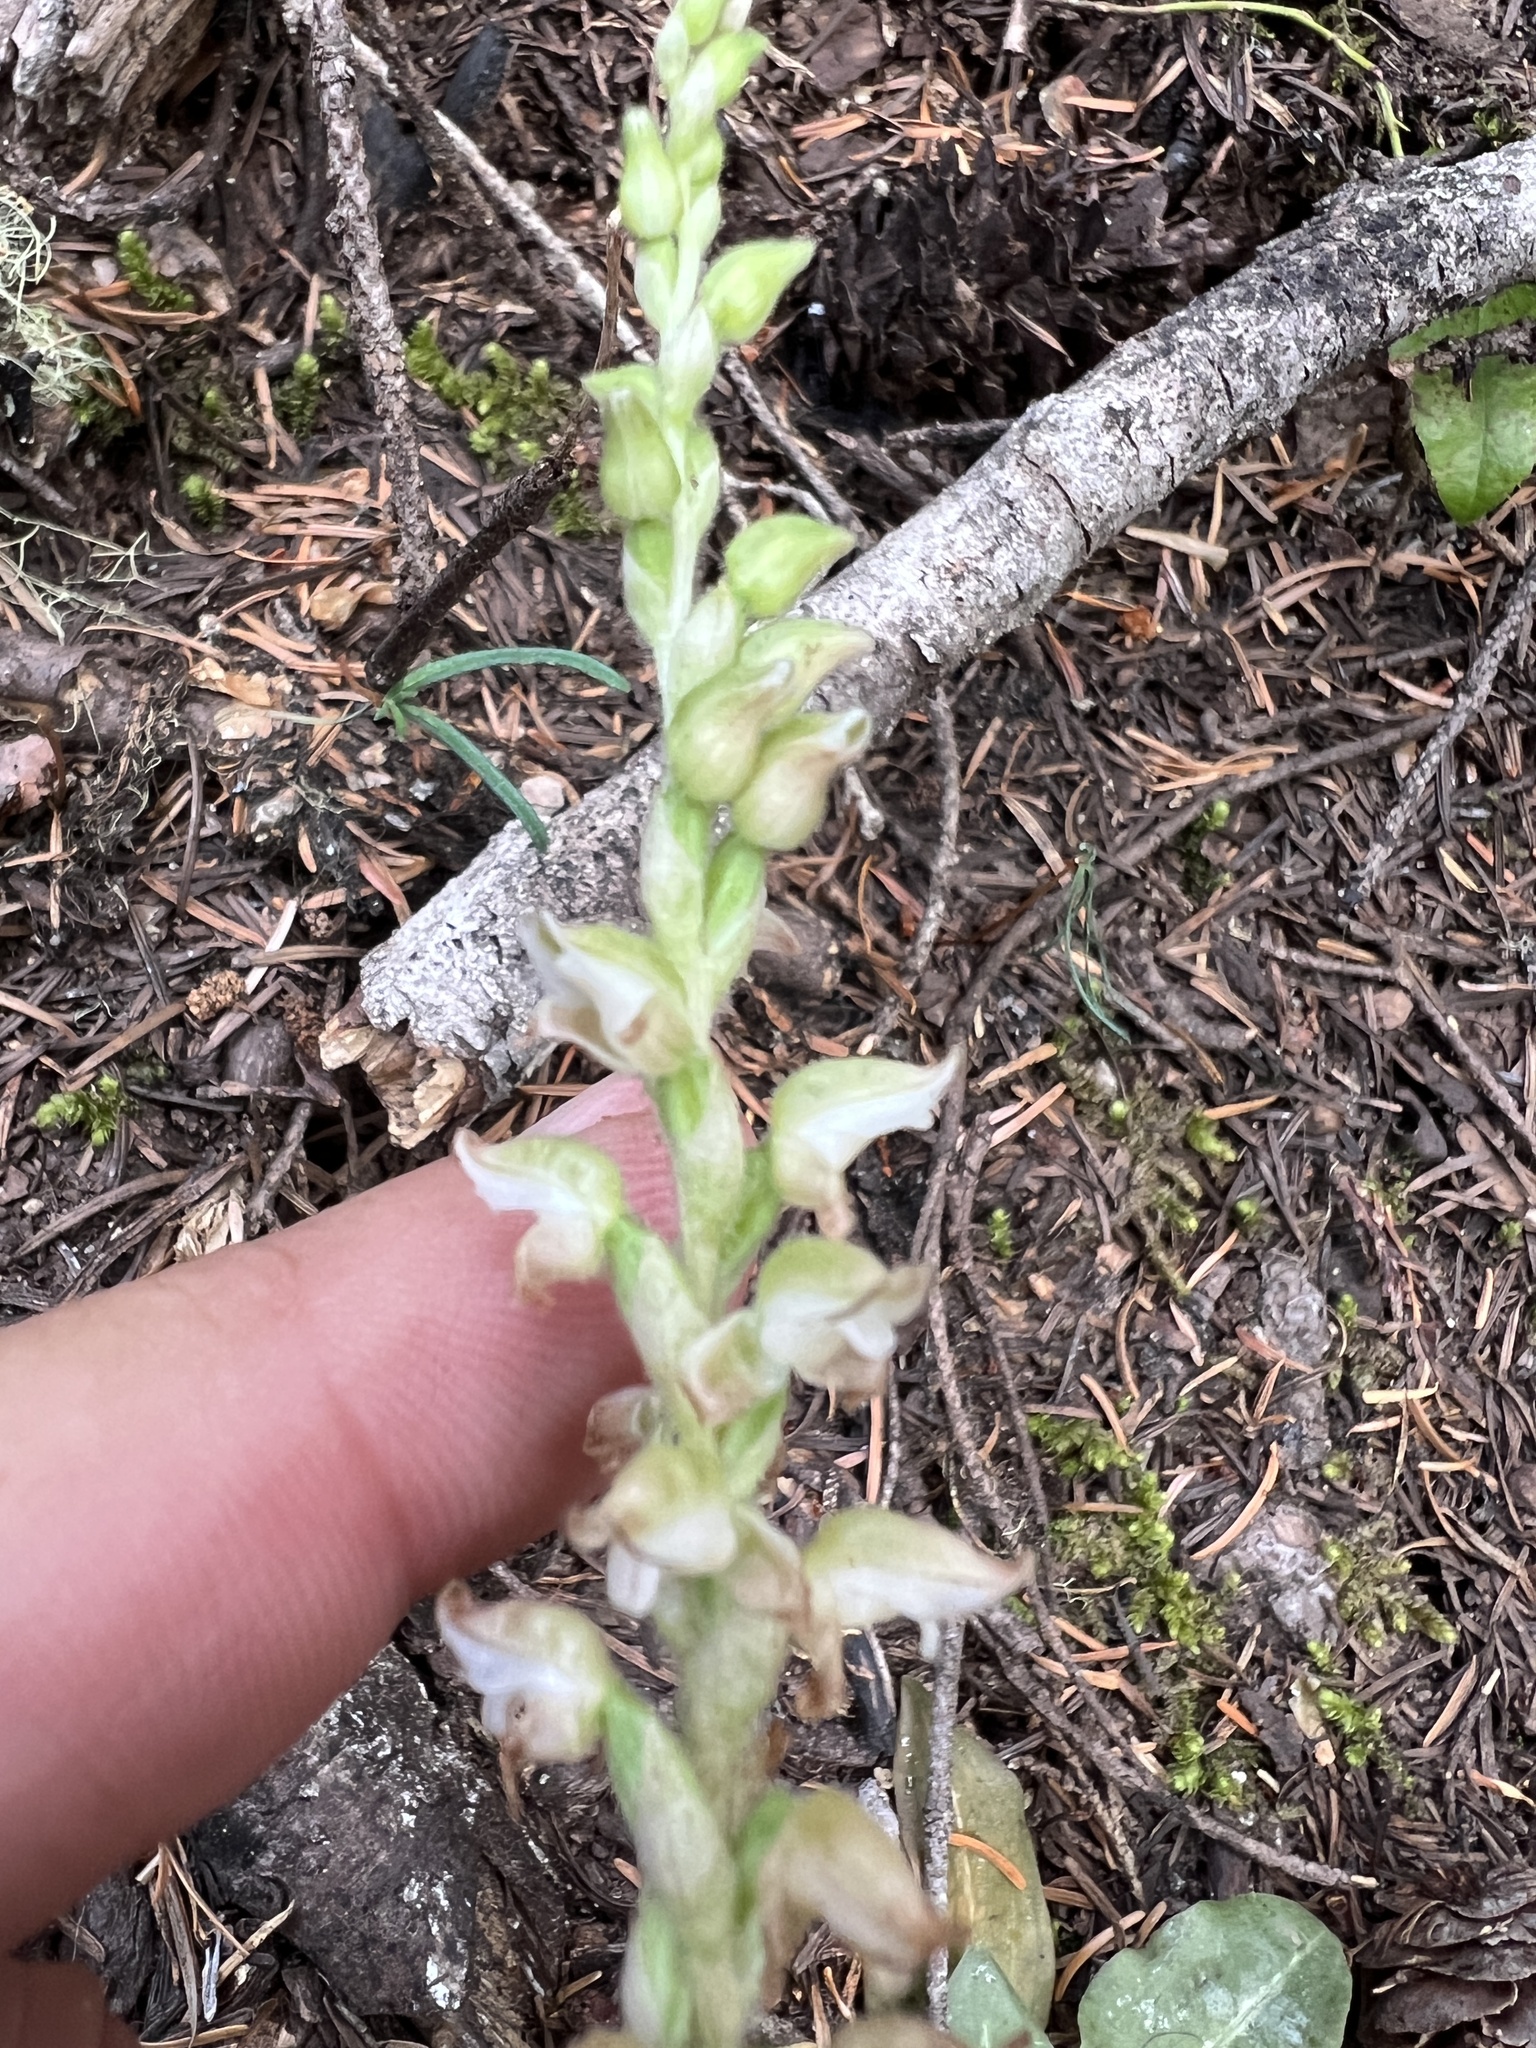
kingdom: Plantae
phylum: Tracheophyta
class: Liliopsida
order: Asparagales
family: Orchidaceae
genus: Goodyera
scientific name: Goodyera oblongifolia
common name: Giant rattlesnake-plantain
